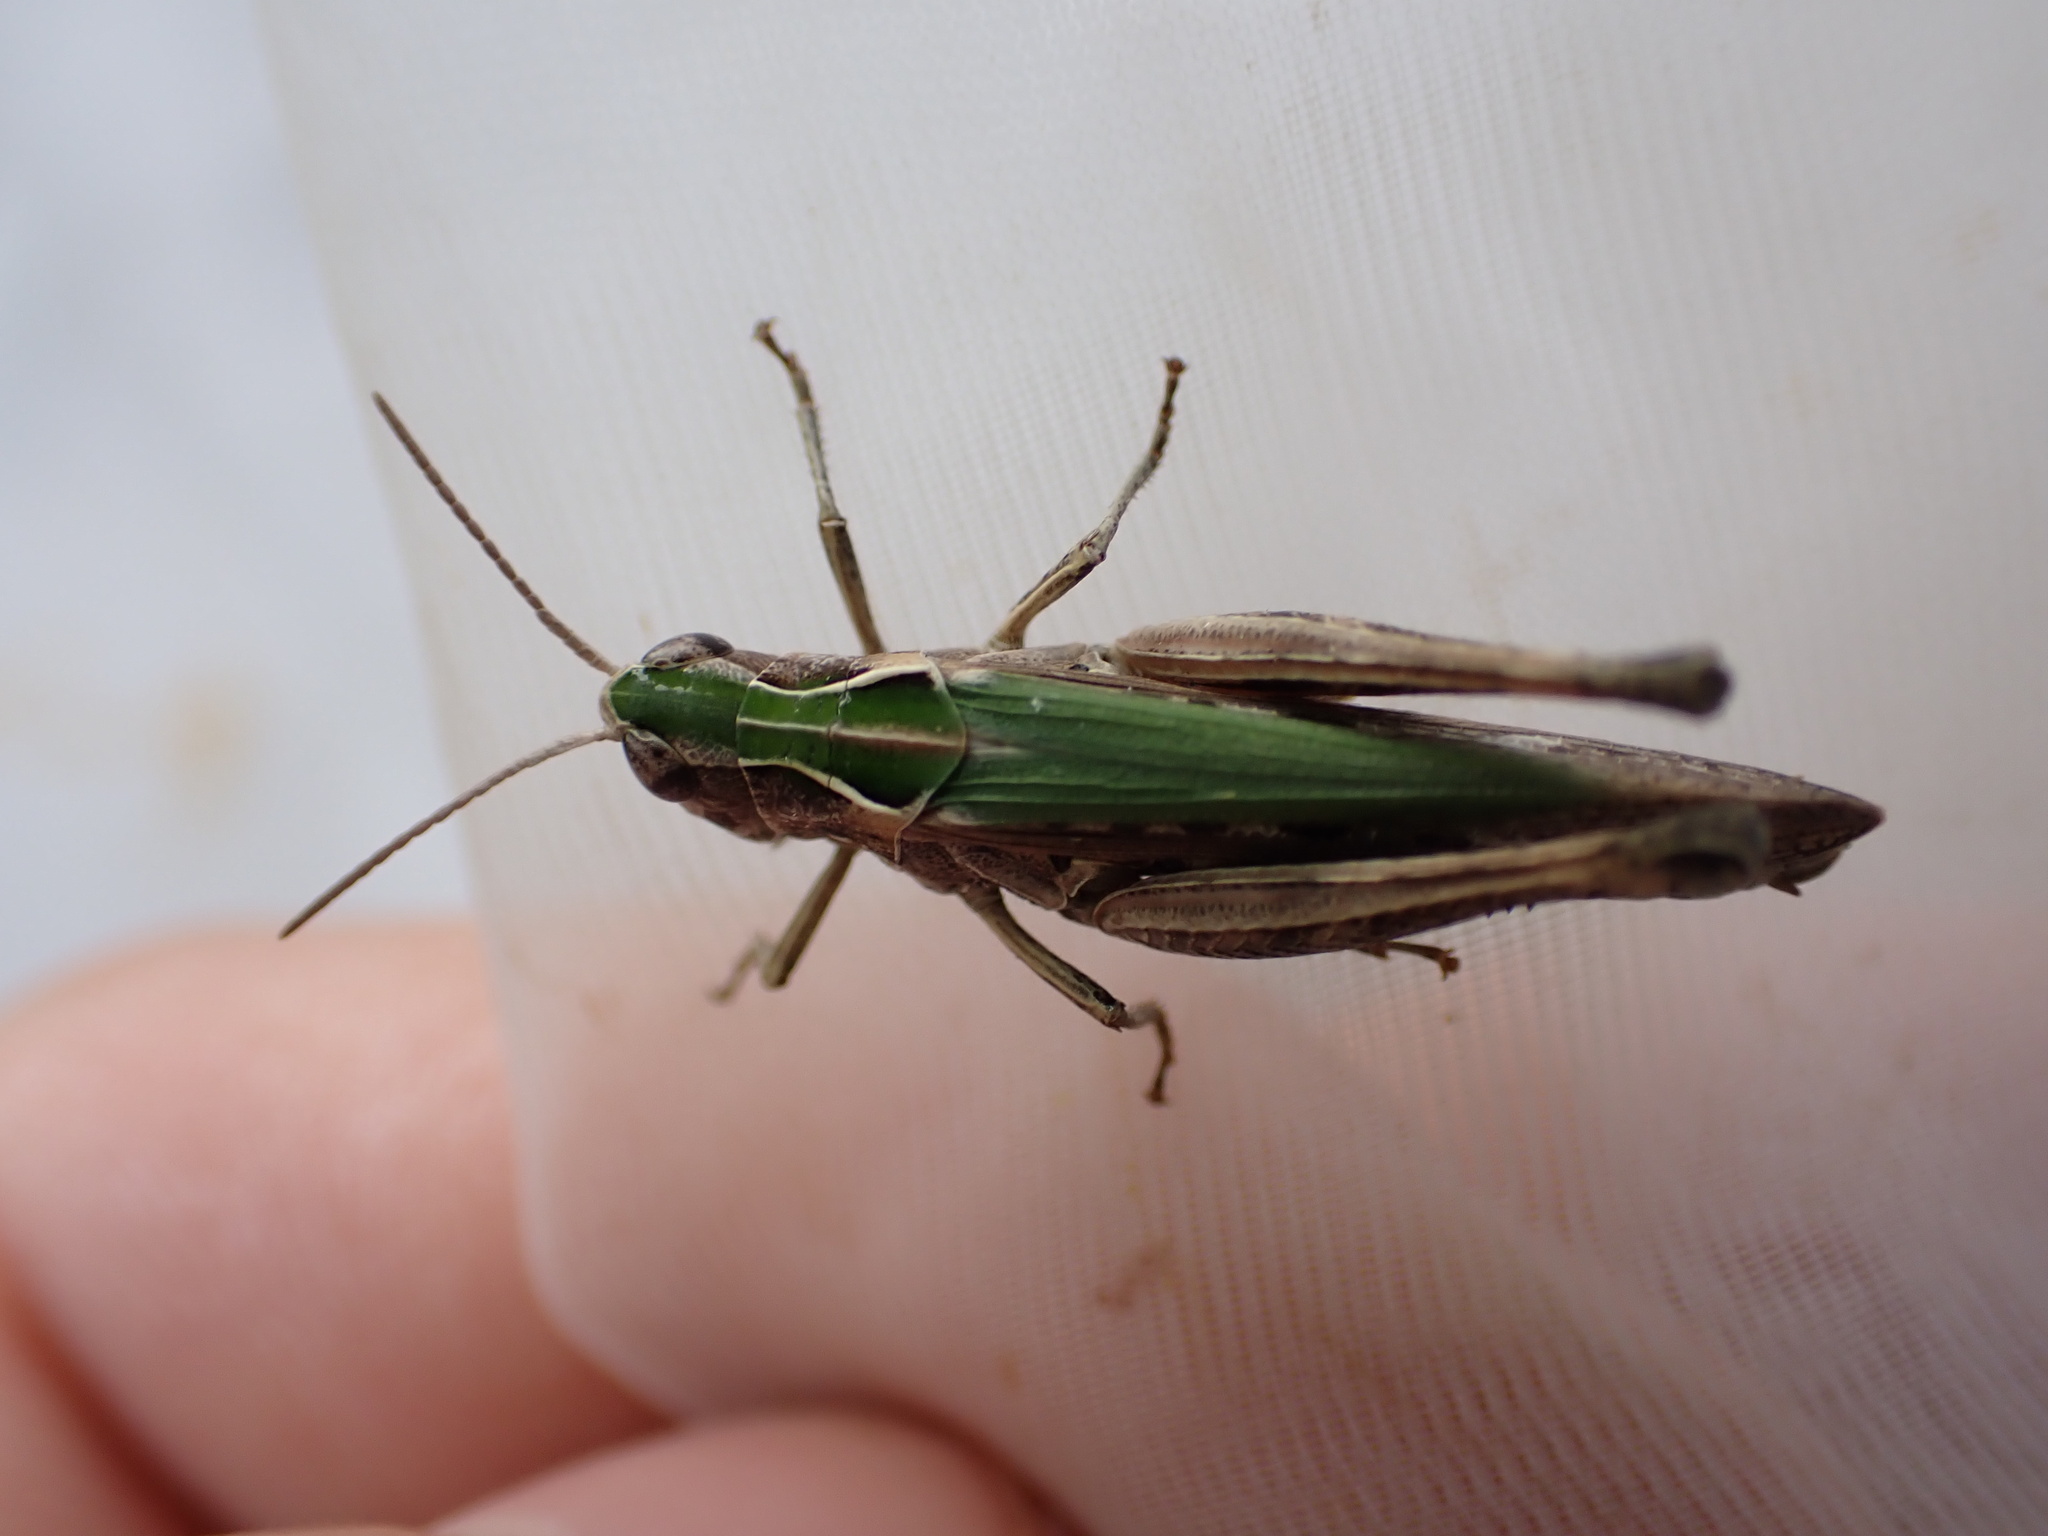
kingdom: Animalia
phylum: Arthropoda
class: Insecta
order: Orthoptera
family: Acrididae
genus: Omocestus
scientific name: Omocestus rufipes
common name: Woodland grasshopper
